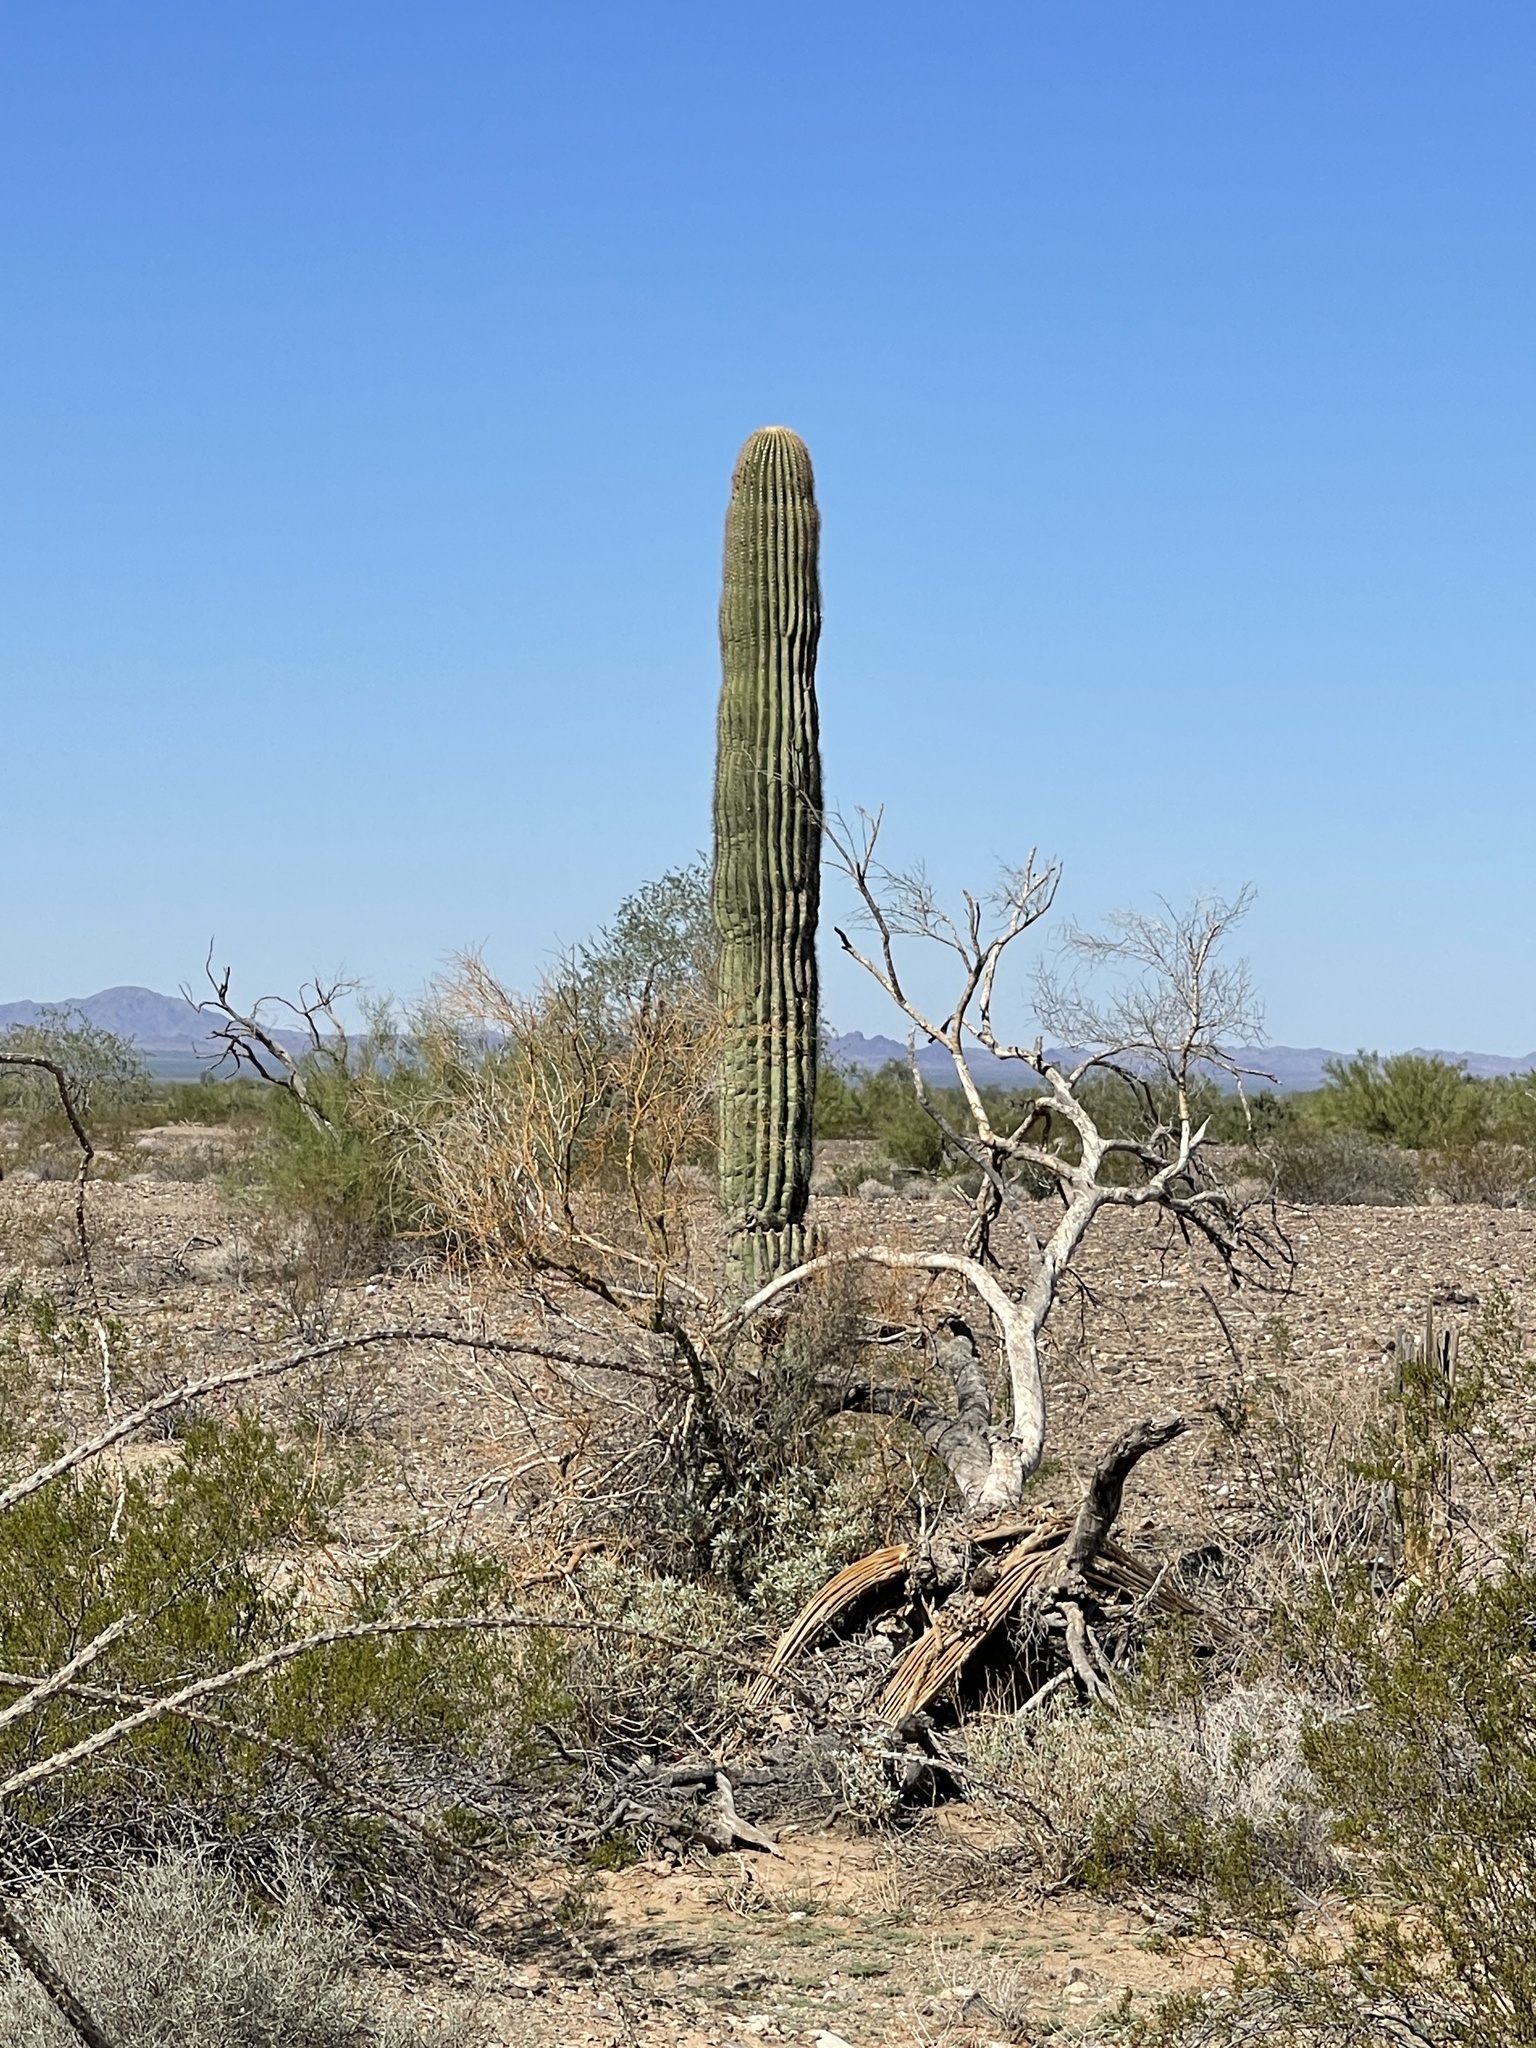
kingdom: Plantae
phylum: Tracheophyta
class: Magnoliopsida
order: Caryophyllales
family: Cactaceae
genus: Carnegiea
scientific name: Carnegiea gigantea
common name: Saguaro
